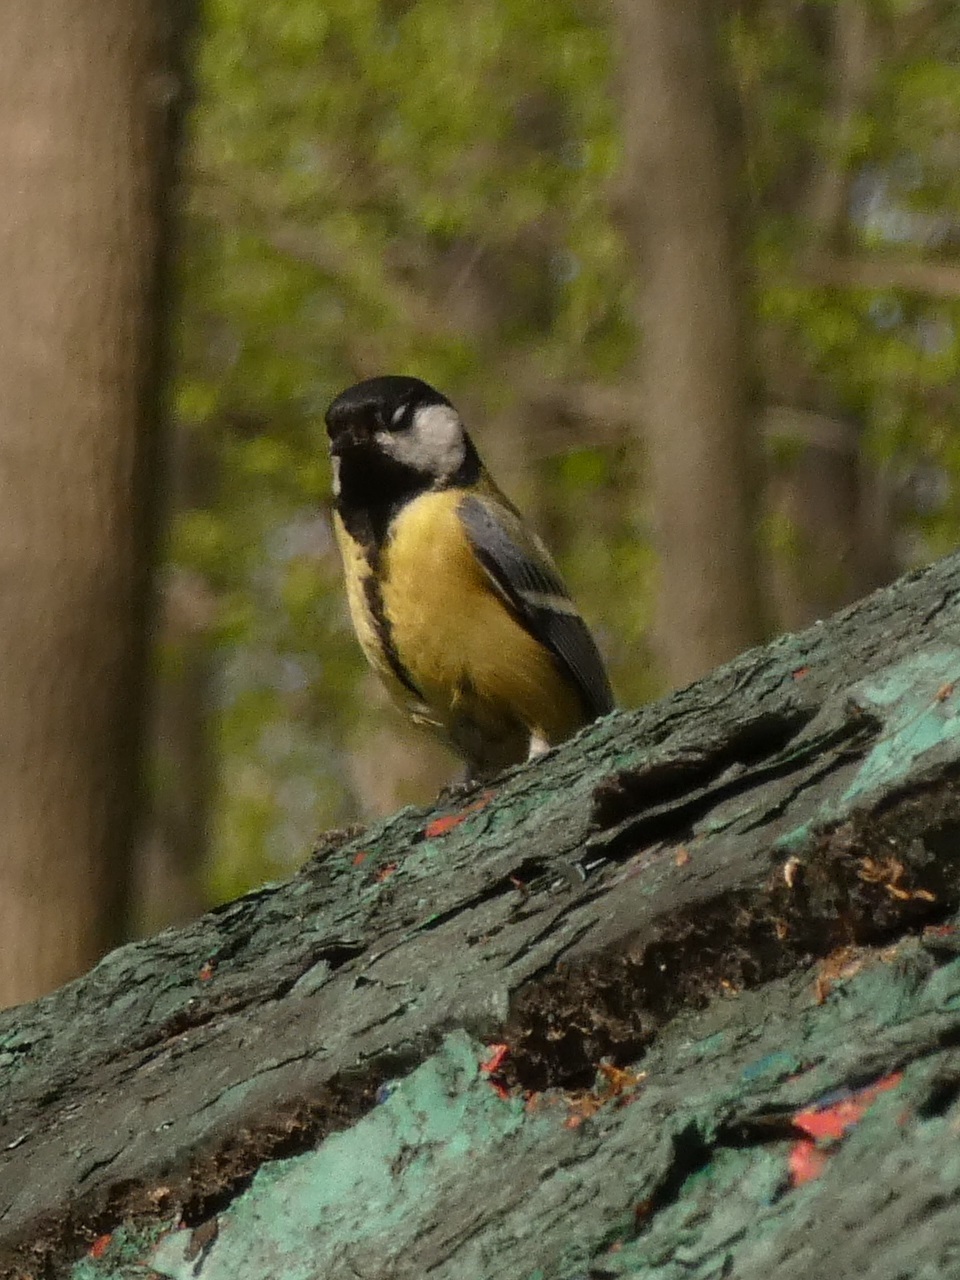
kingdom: Animalia
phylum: Chordata
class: Aves
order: Passeriformes
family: Paridae
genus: Parus
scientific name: Parus major
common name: Great tit
